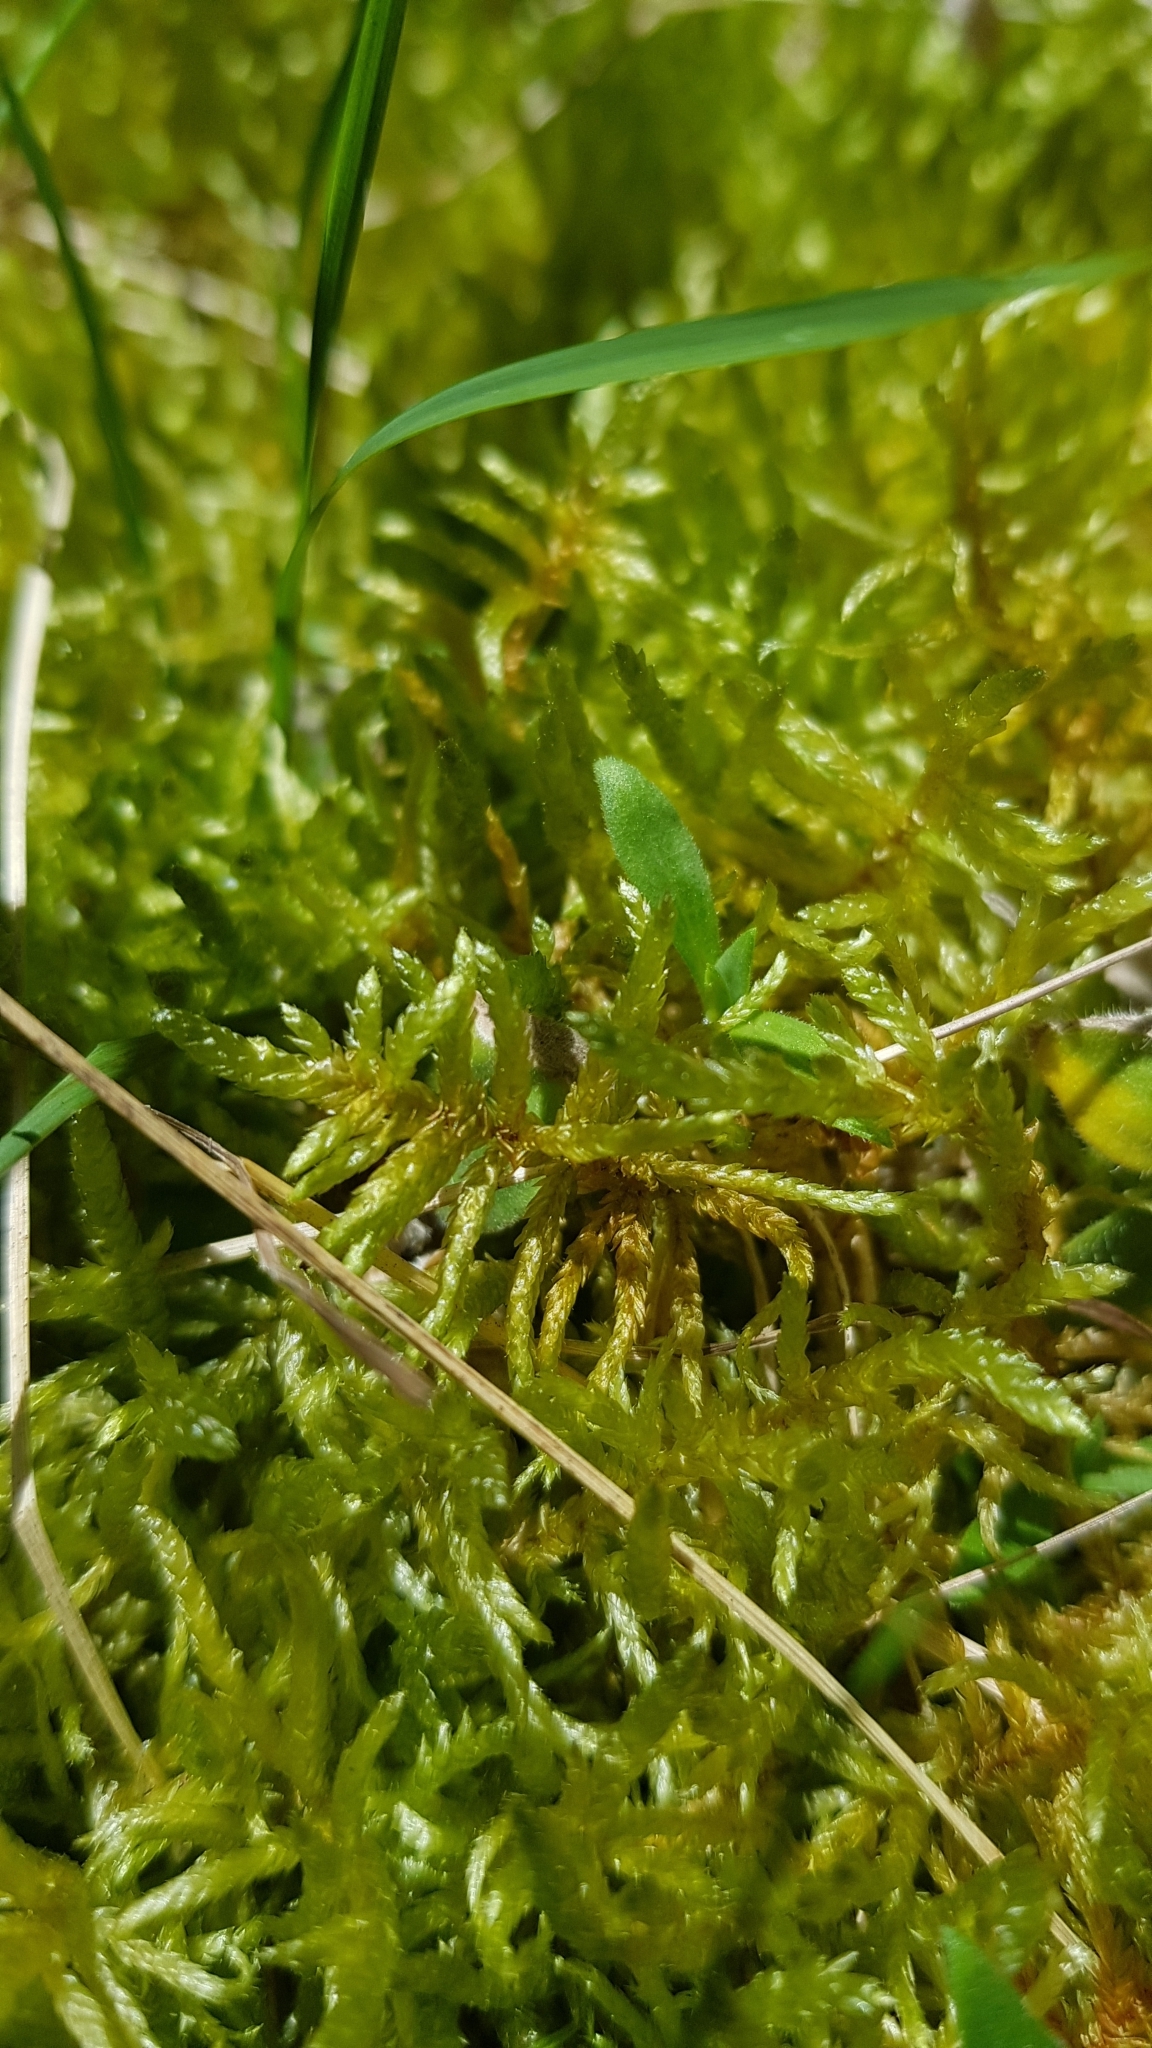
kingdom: Plantae
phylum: Bryophyta
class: Bryopsida
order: Hypnales
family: Brachytheciaceae
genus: Pseudoscleropodium
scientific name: Pseudoscleropodium purum
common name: Neat feather-moss
